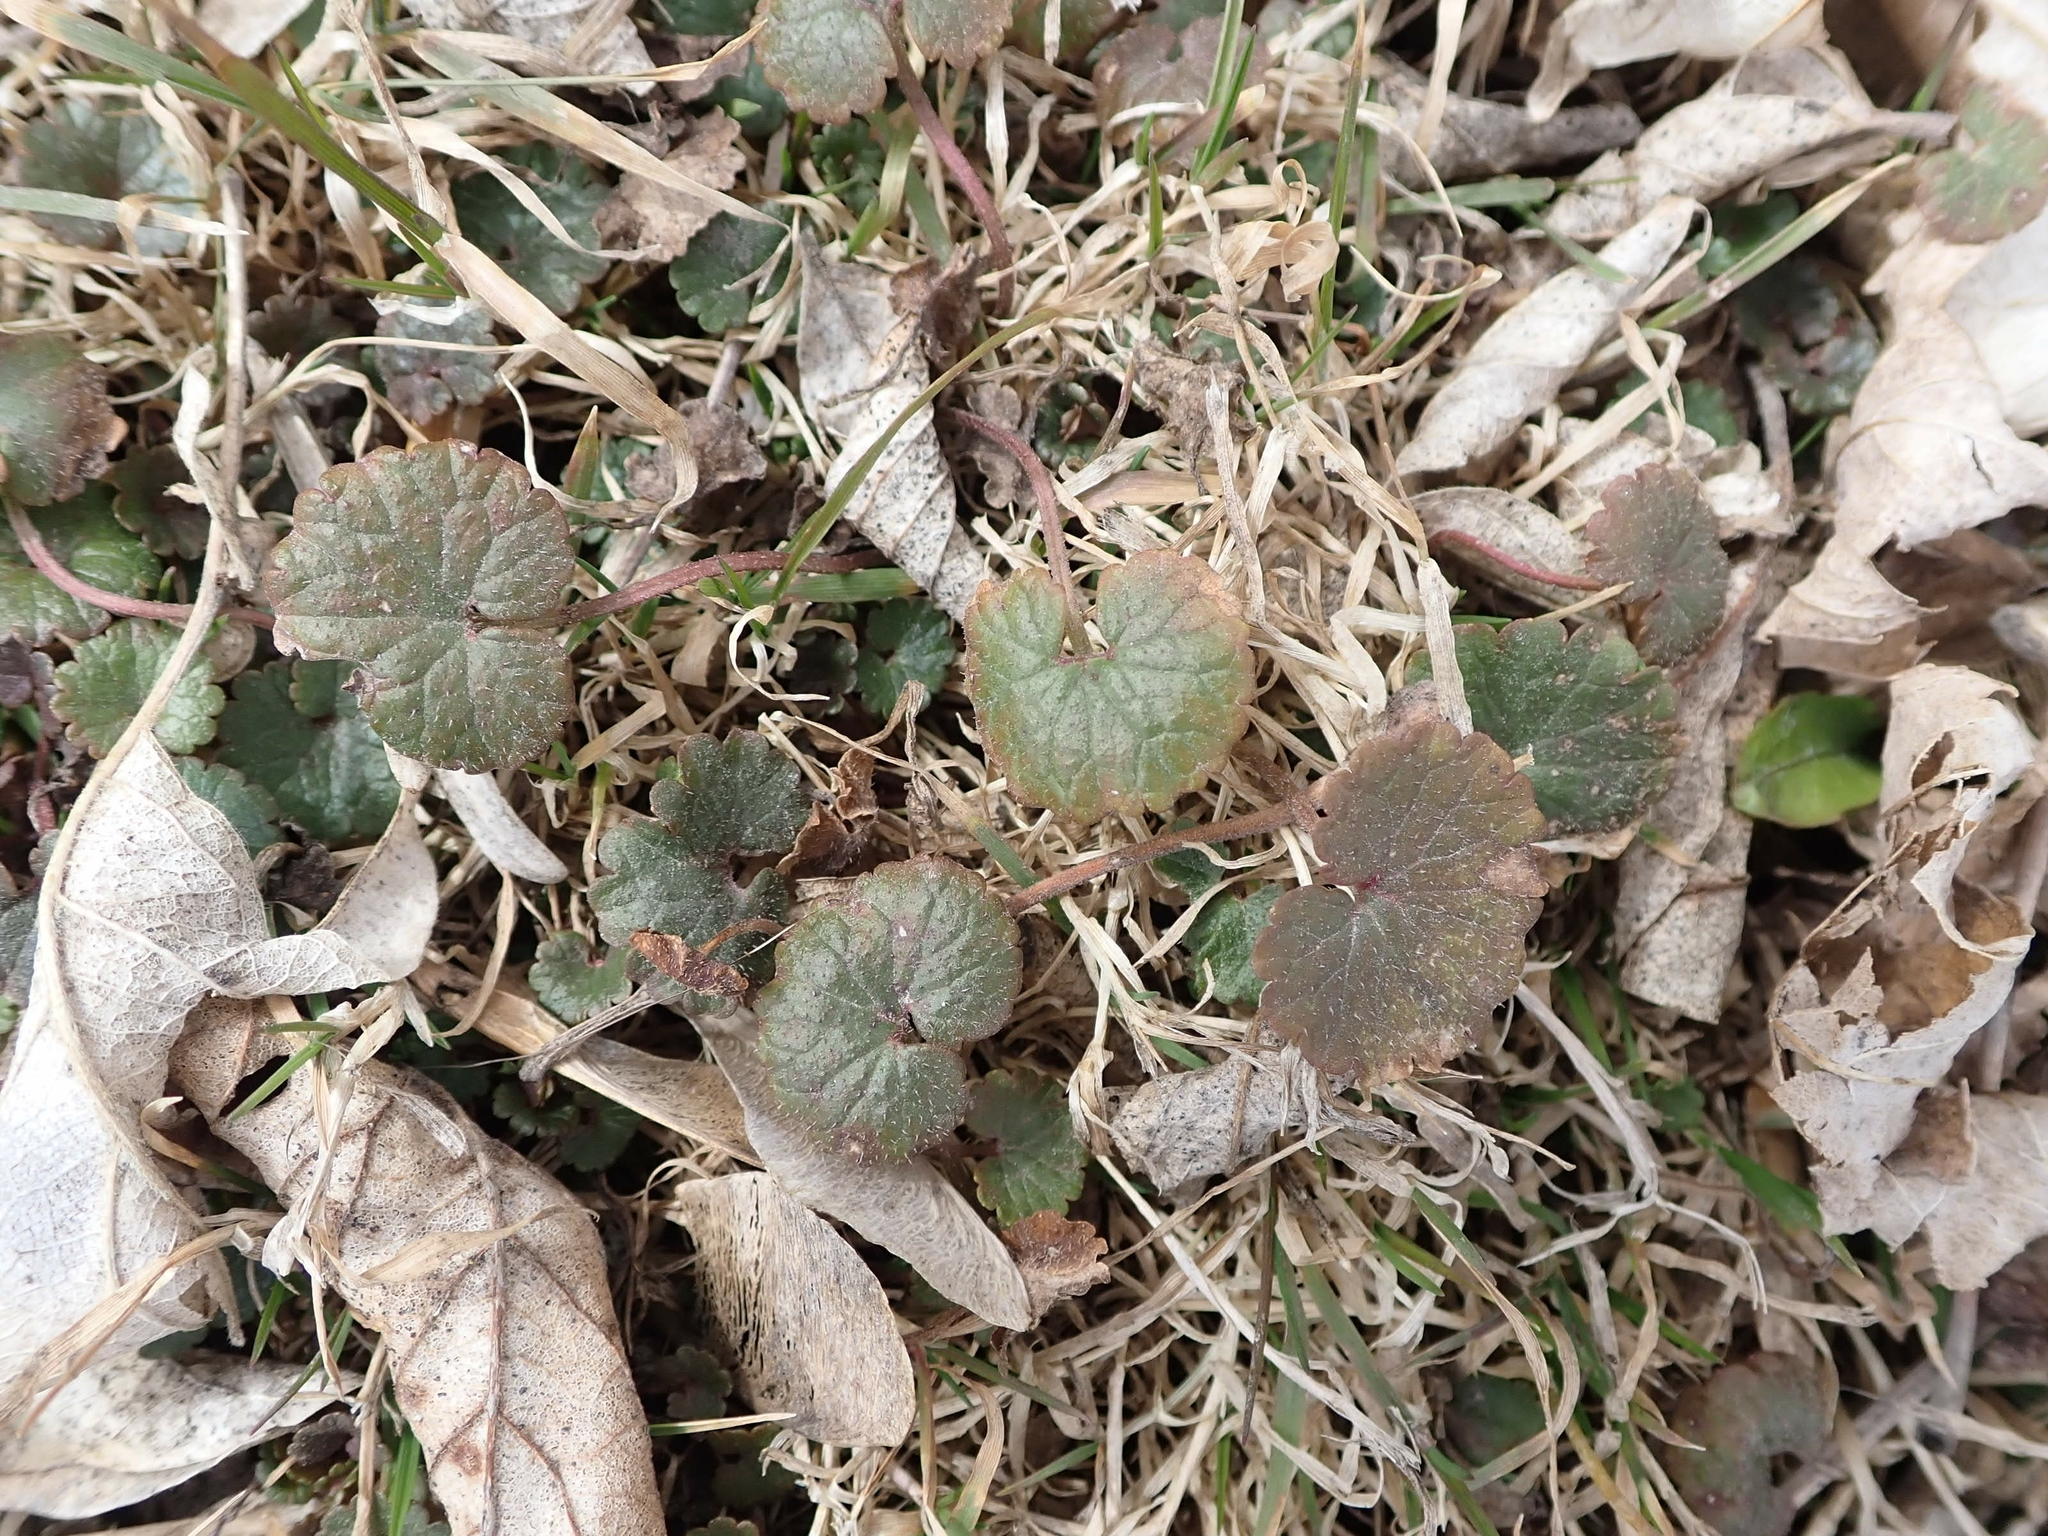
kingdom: Plantae
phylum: Tracheophyta
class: Magnoliopsida
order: Lamiales
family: Lamiaceae
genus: Glechoma
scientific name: Glechoma hederacea
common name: Ground ivy
